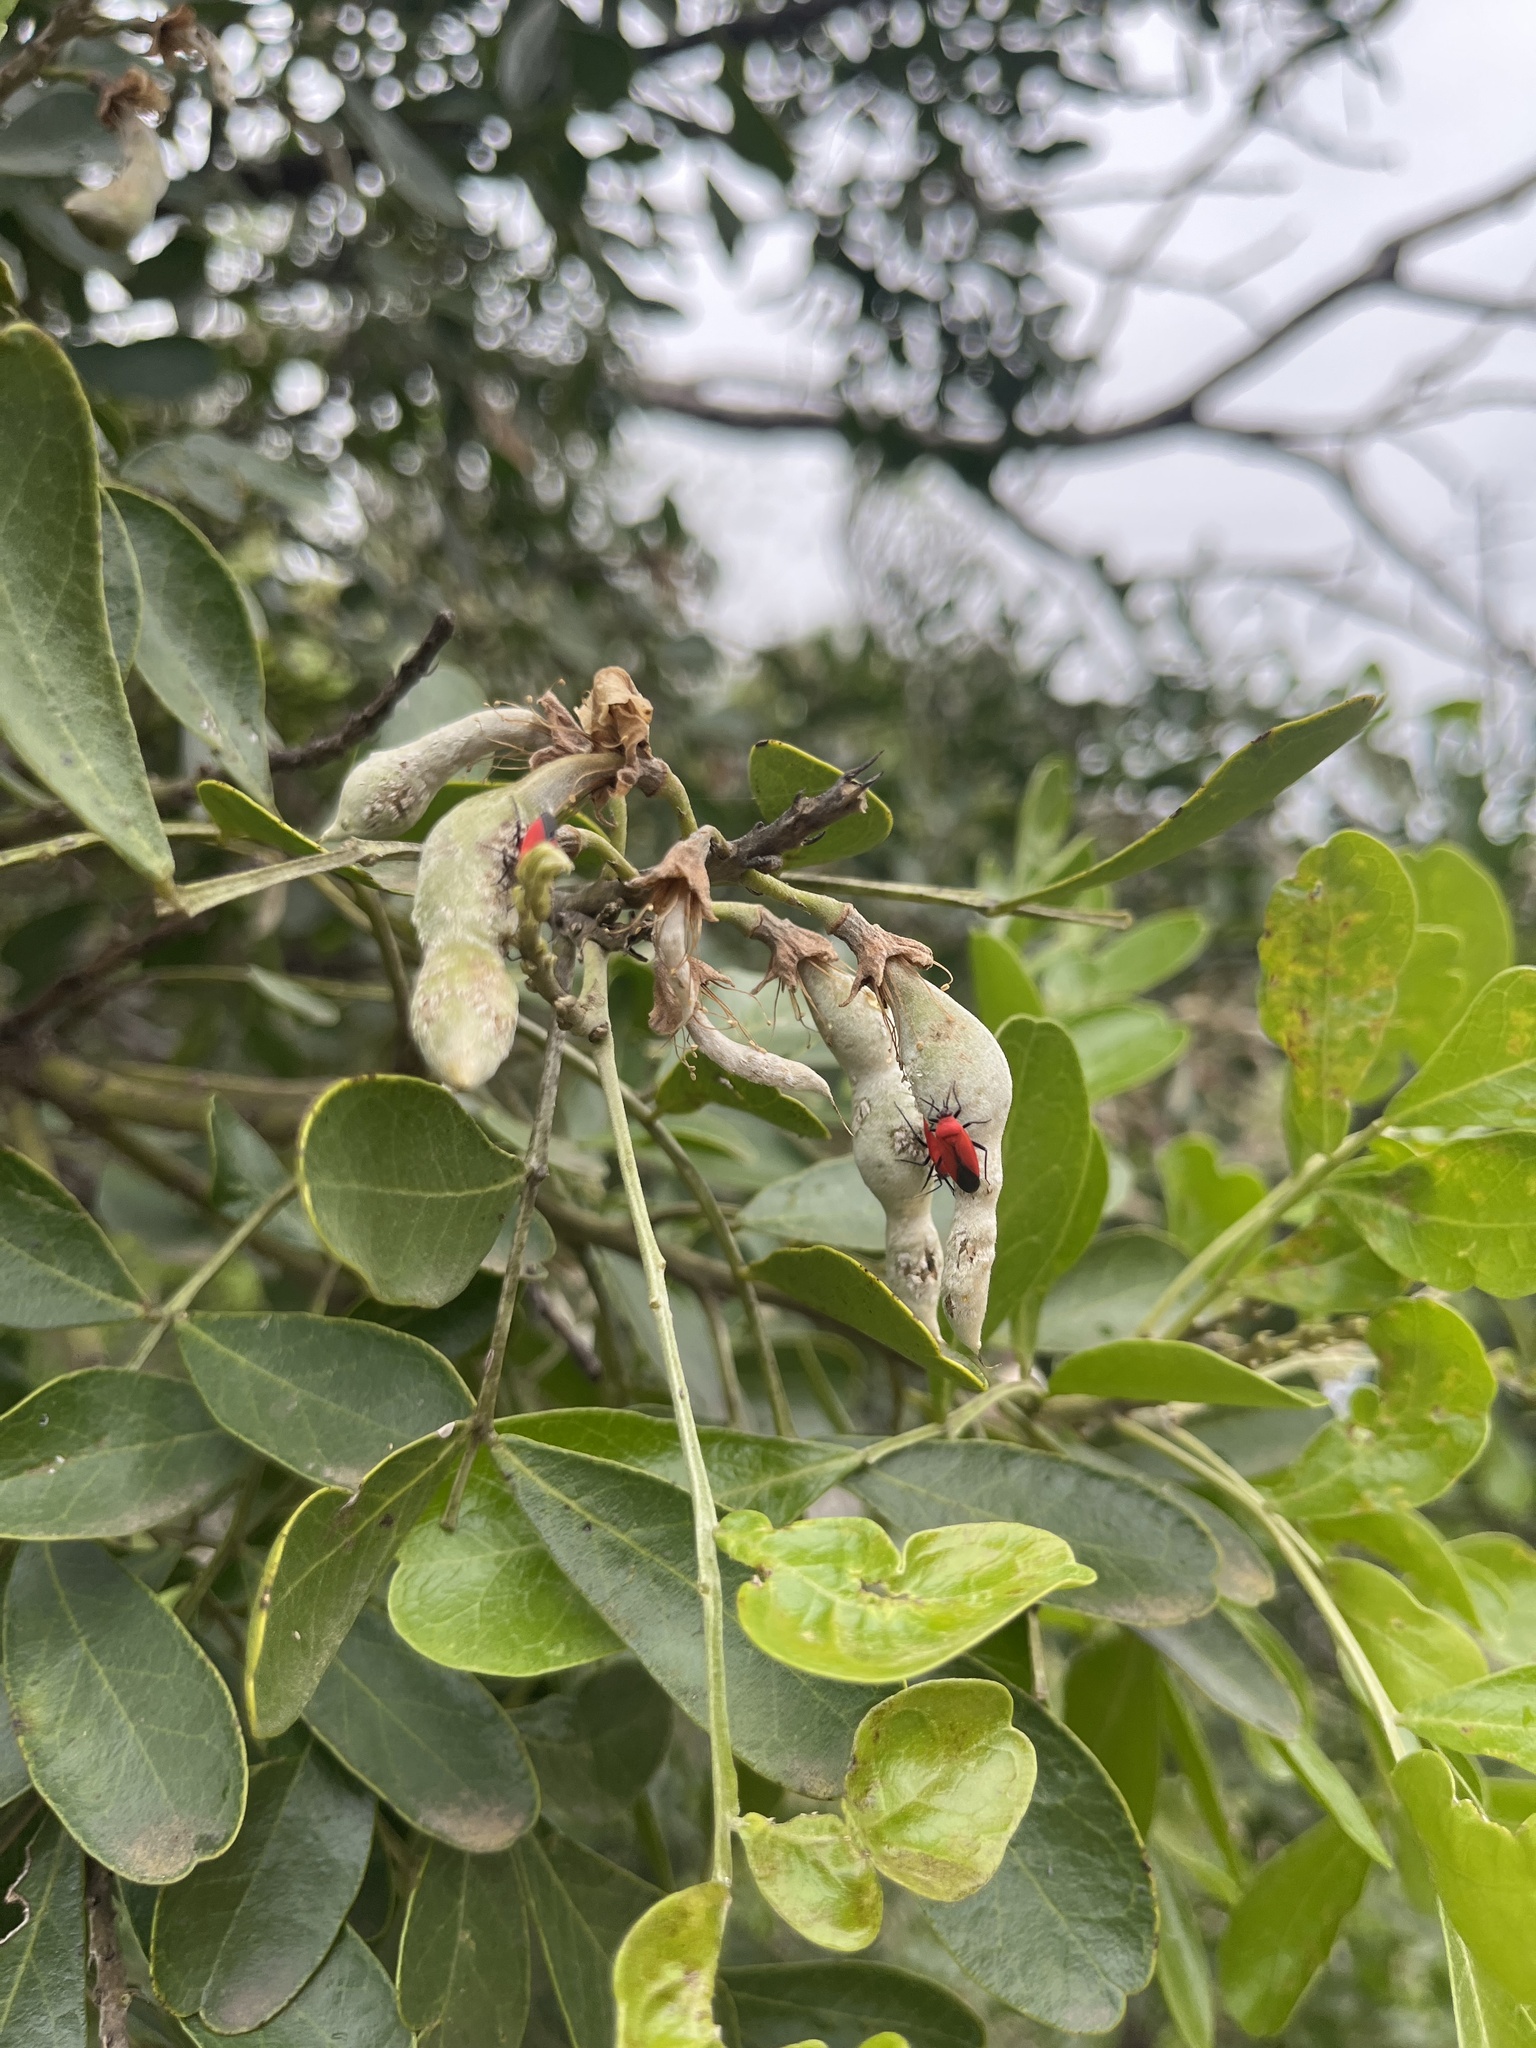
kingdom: Animalia
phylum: Arthropoda
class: Insecta
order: Hemiptera
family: Miridae
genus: Lopidea
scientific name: Lopidea major
